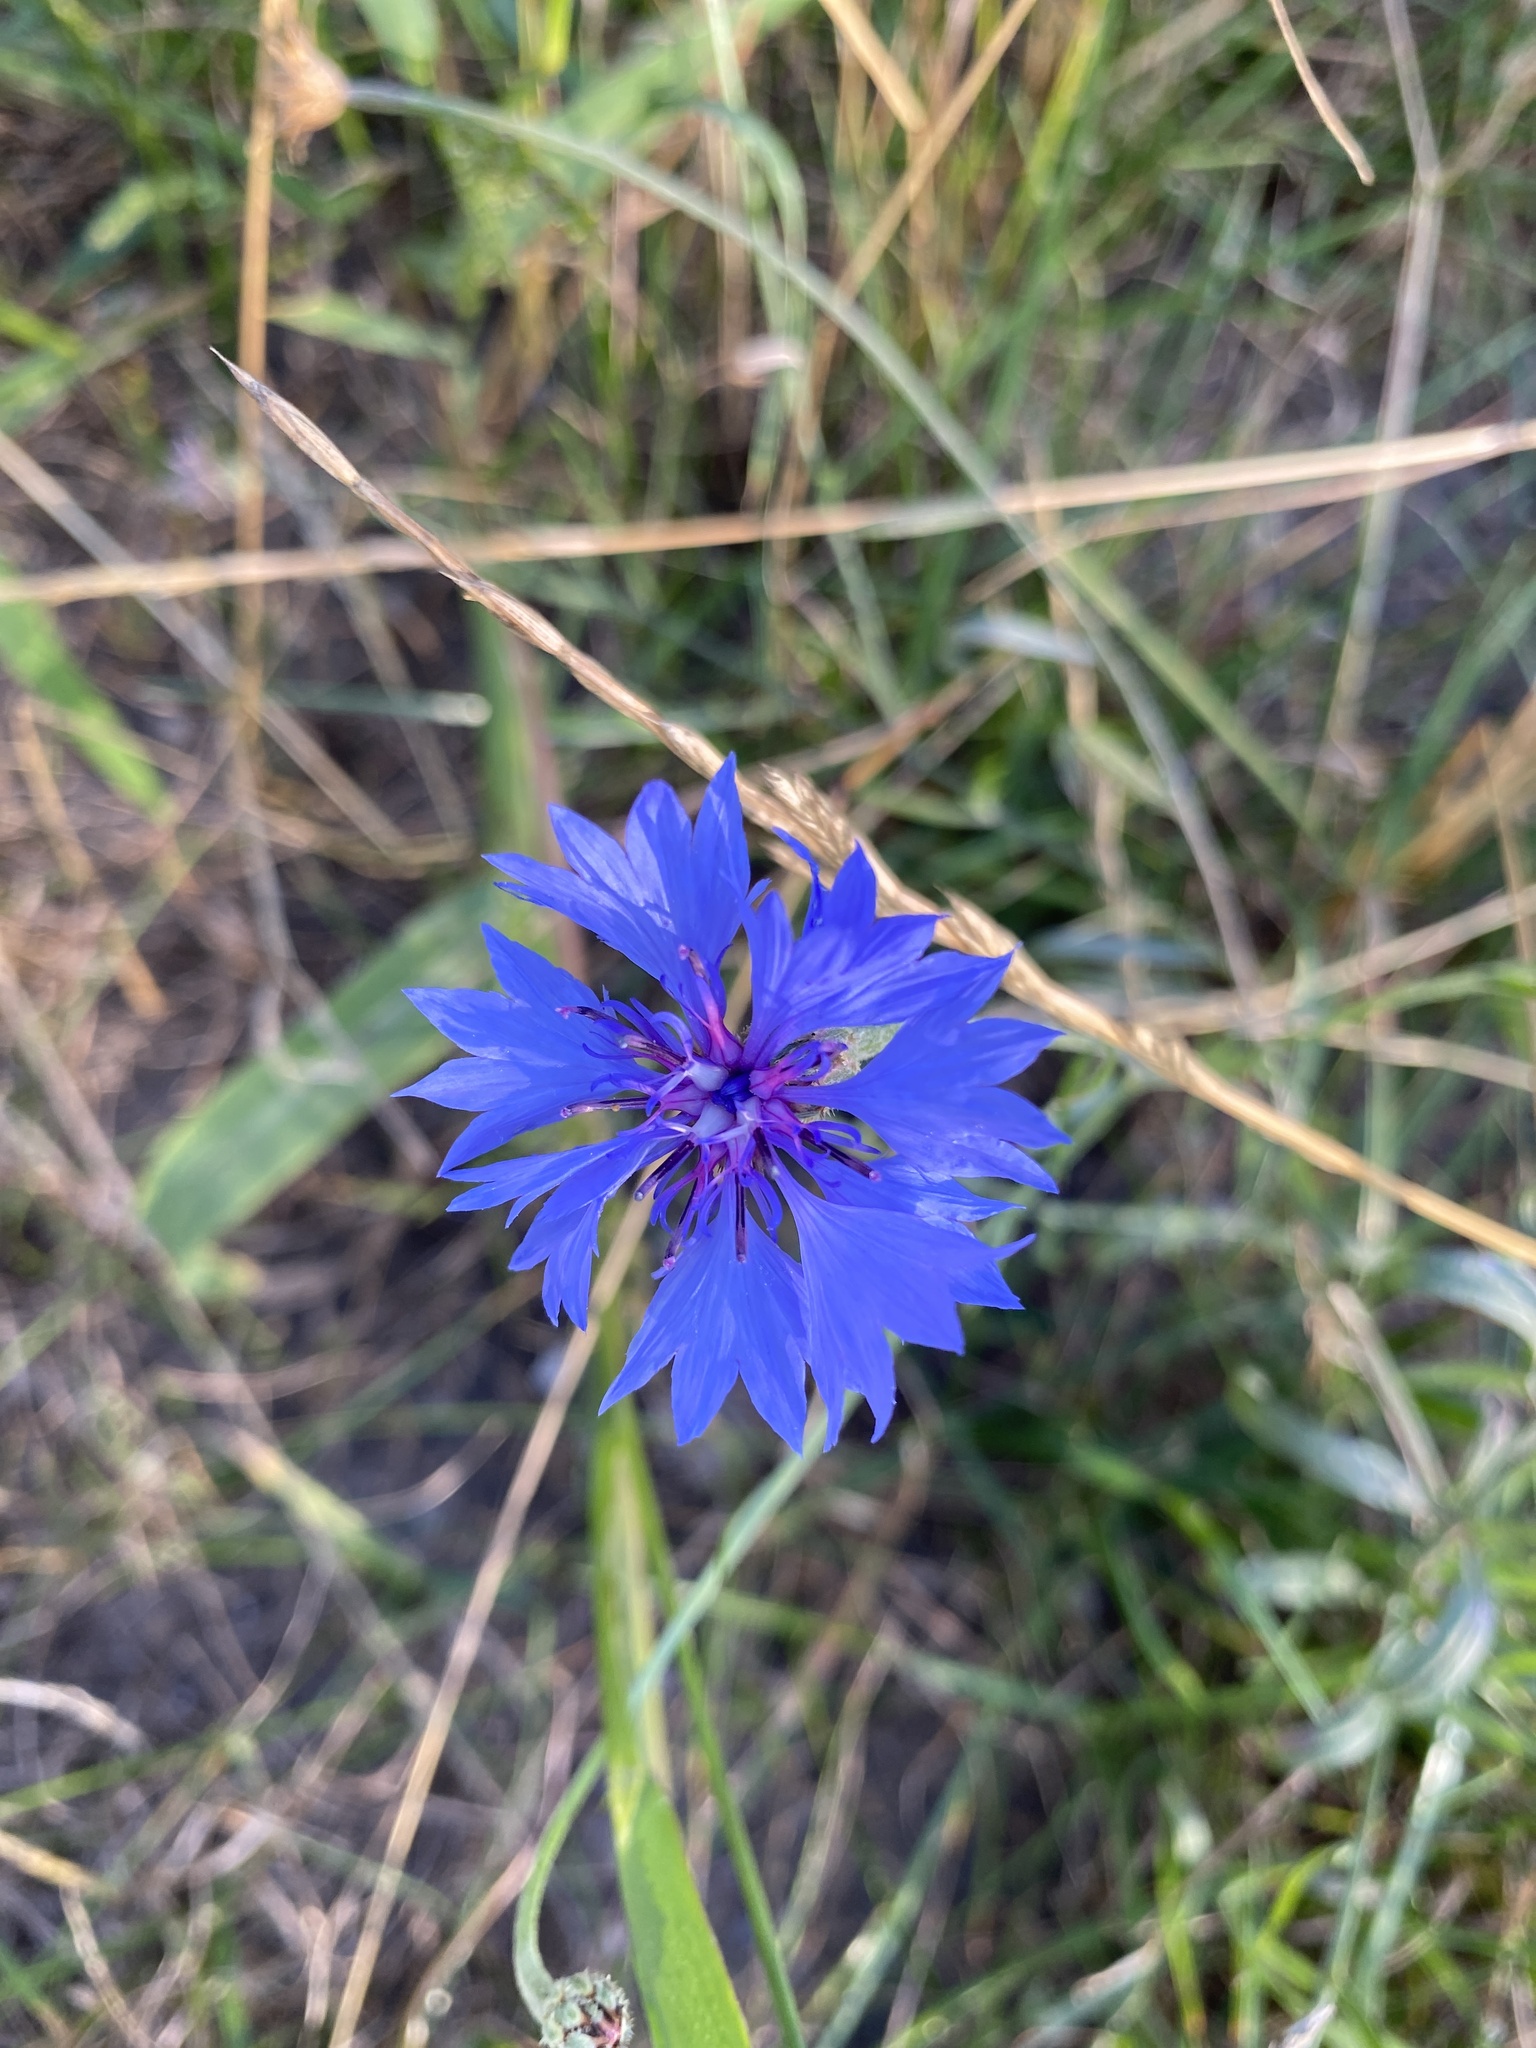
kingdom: Plantae
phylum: Tracheophyta
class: Magnoliopsida
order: Asterales
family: Asteraceae
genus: Centaurea
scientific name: Centaurea cyanus
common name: Cornflower
